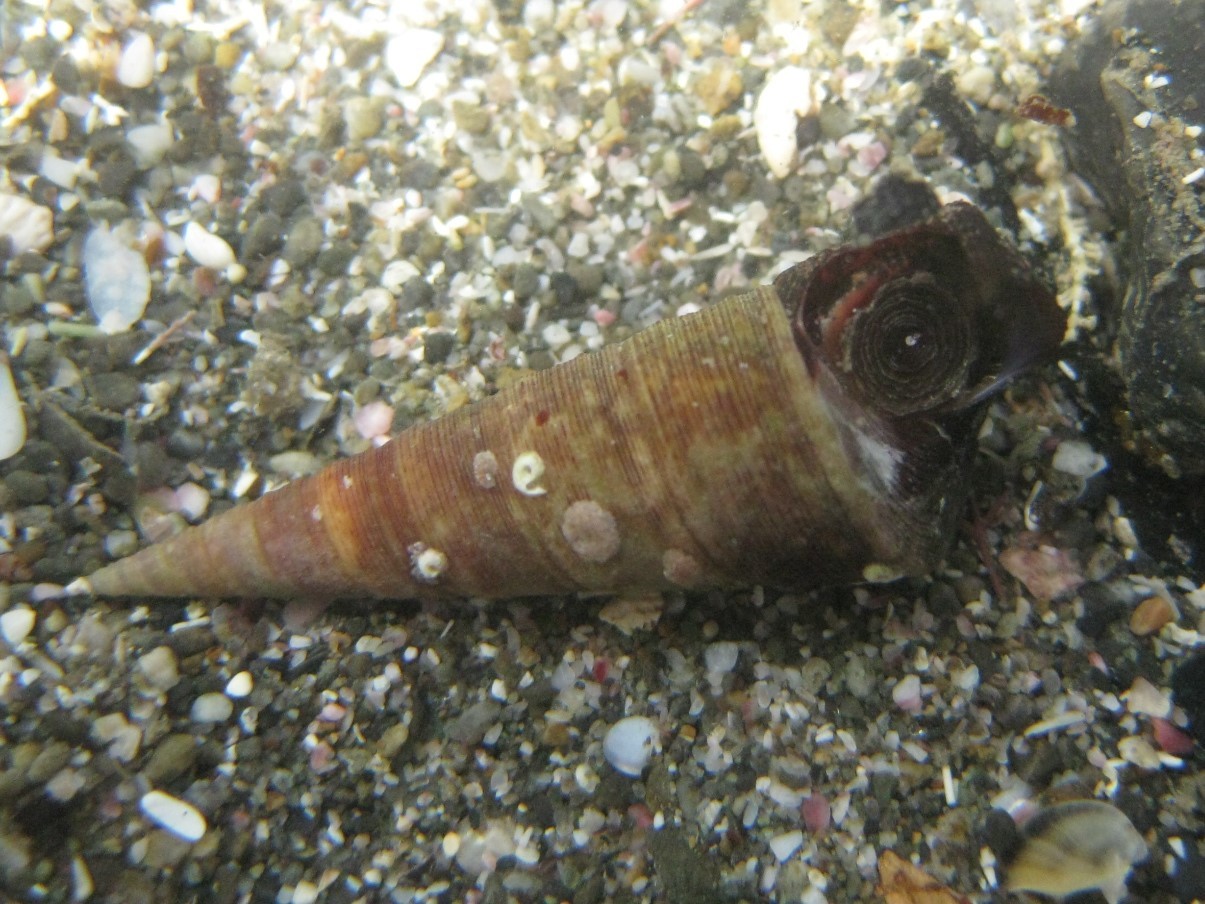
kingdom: Animalia
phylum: Mollusca
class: Gastropoda
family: Turritellidae
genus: Maoricolpus
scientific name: Maoricolpus roseus
